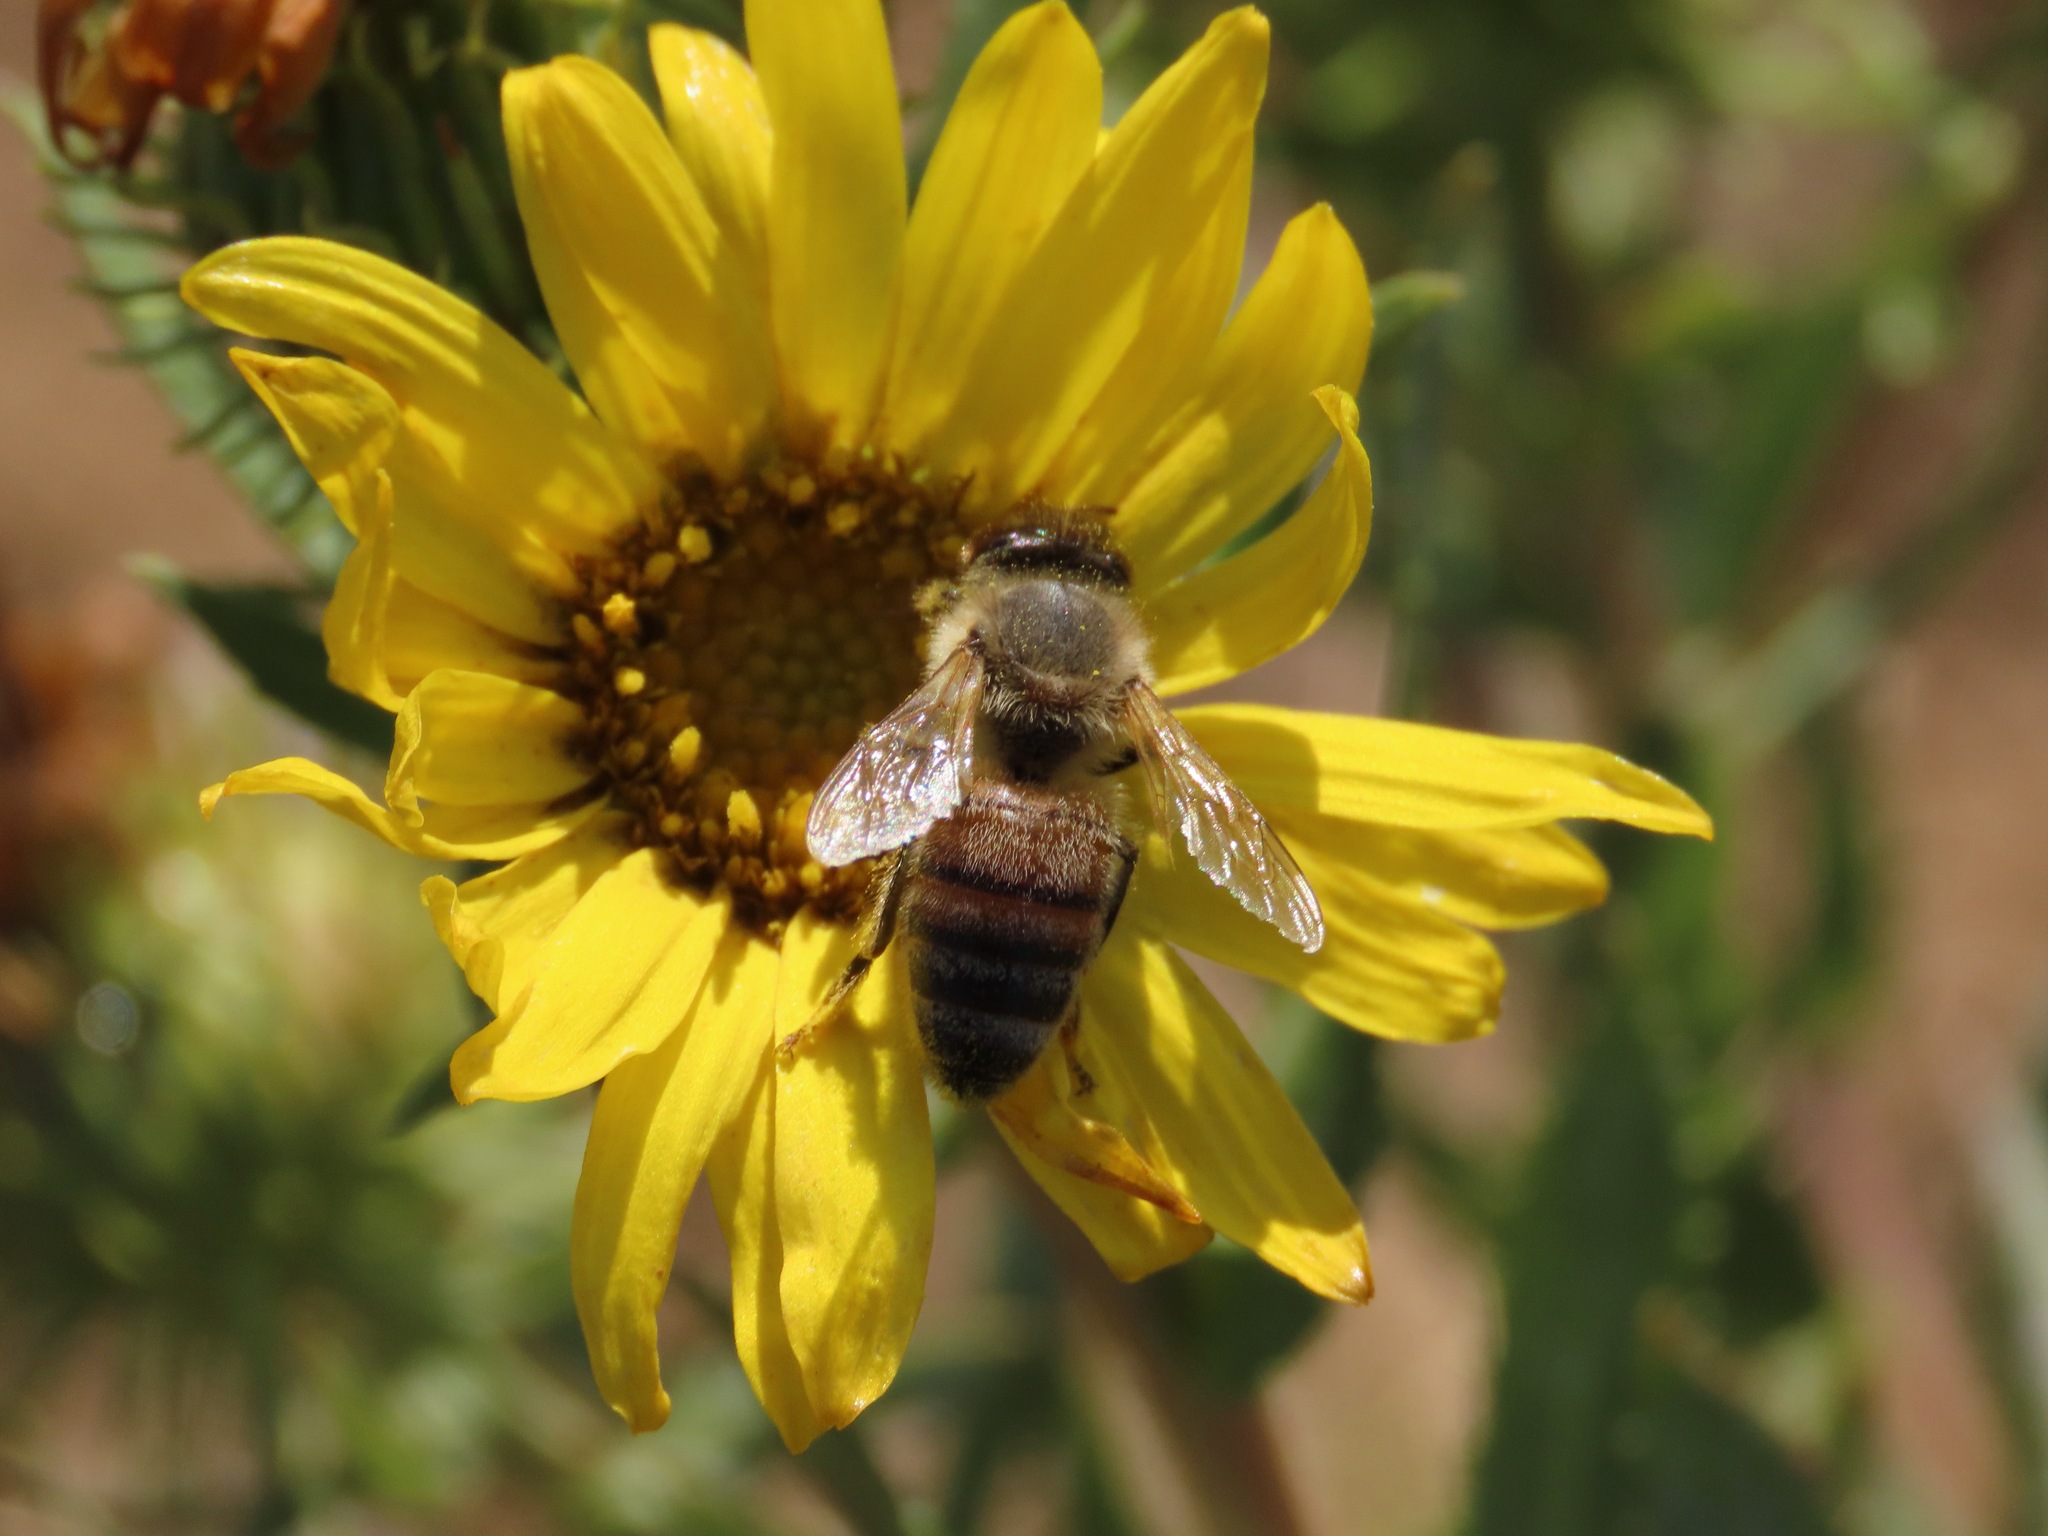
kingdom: Animalia
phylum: Arthropoda
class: Insecta
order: Hymenoptera
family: Apidae
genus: Apis
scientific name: Apis mellifera
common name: Honey bee
